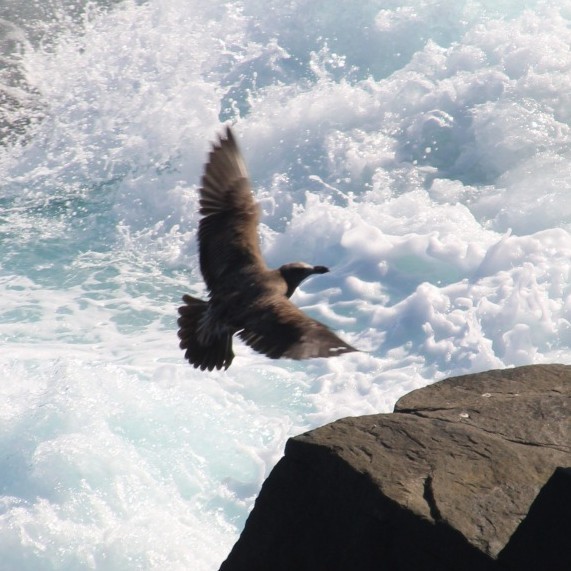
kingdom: Animalia
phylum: Chordata
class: Aves
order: Charadriiformes
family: Laridae
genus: Larus
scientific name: Larus pacificus
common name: Pacific gull
